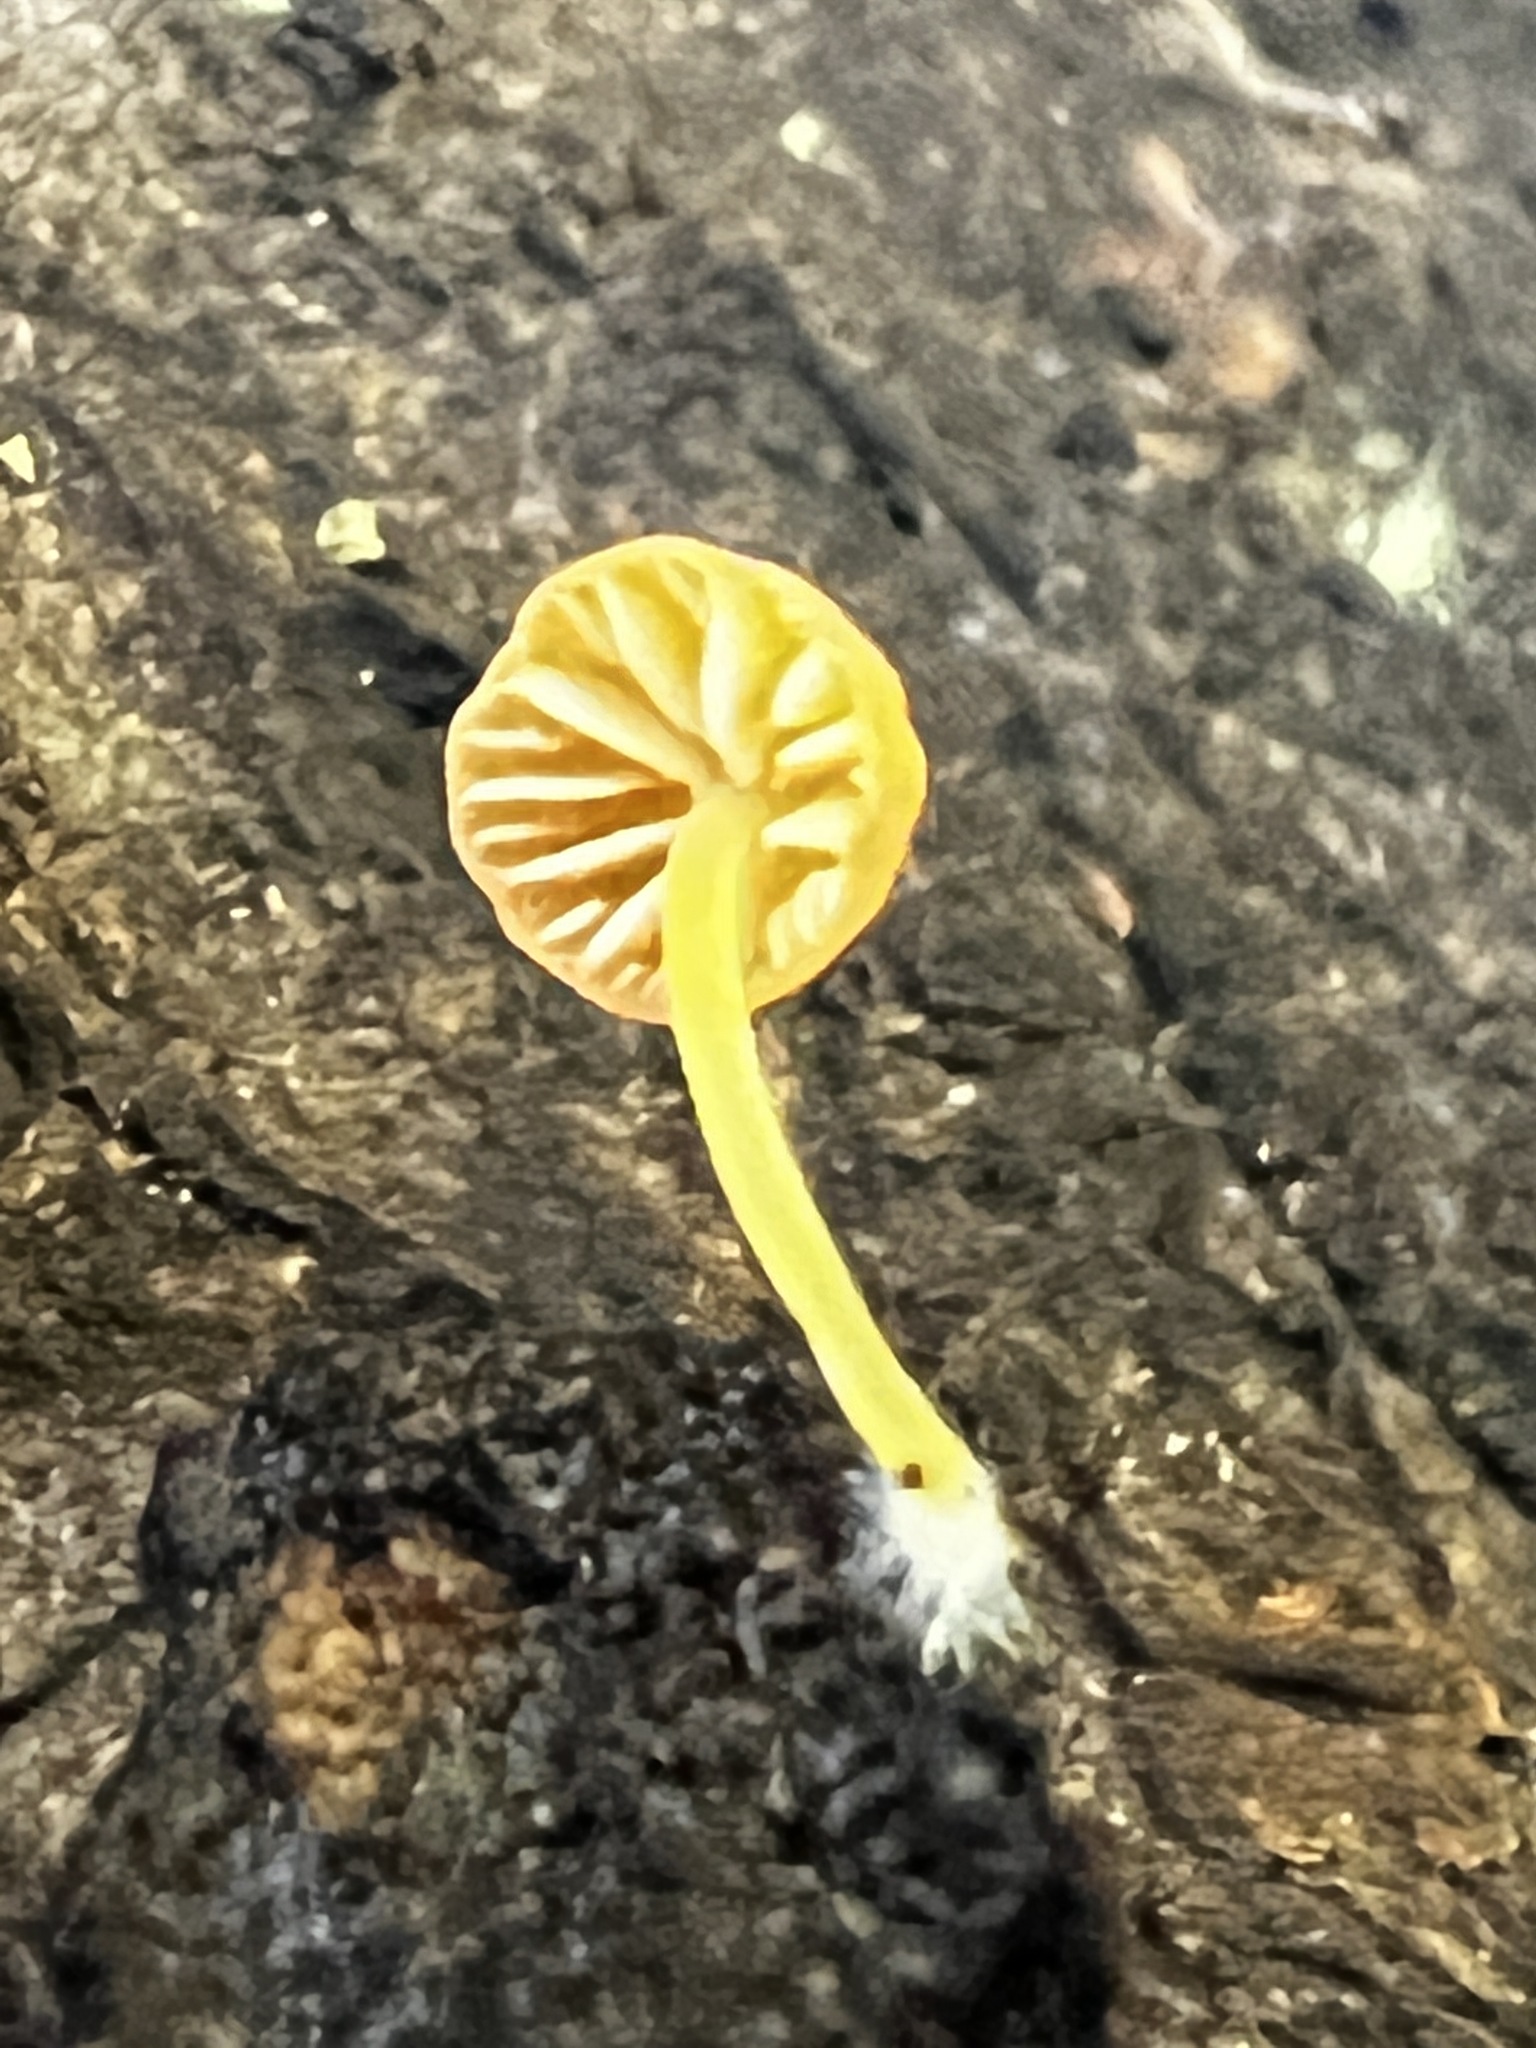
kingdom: Fungi
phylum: Basidiomycota
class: Agaricomycetes
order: Agaricales
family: Mycenaceae
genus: Mycena
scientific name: Mycena oregonensis
